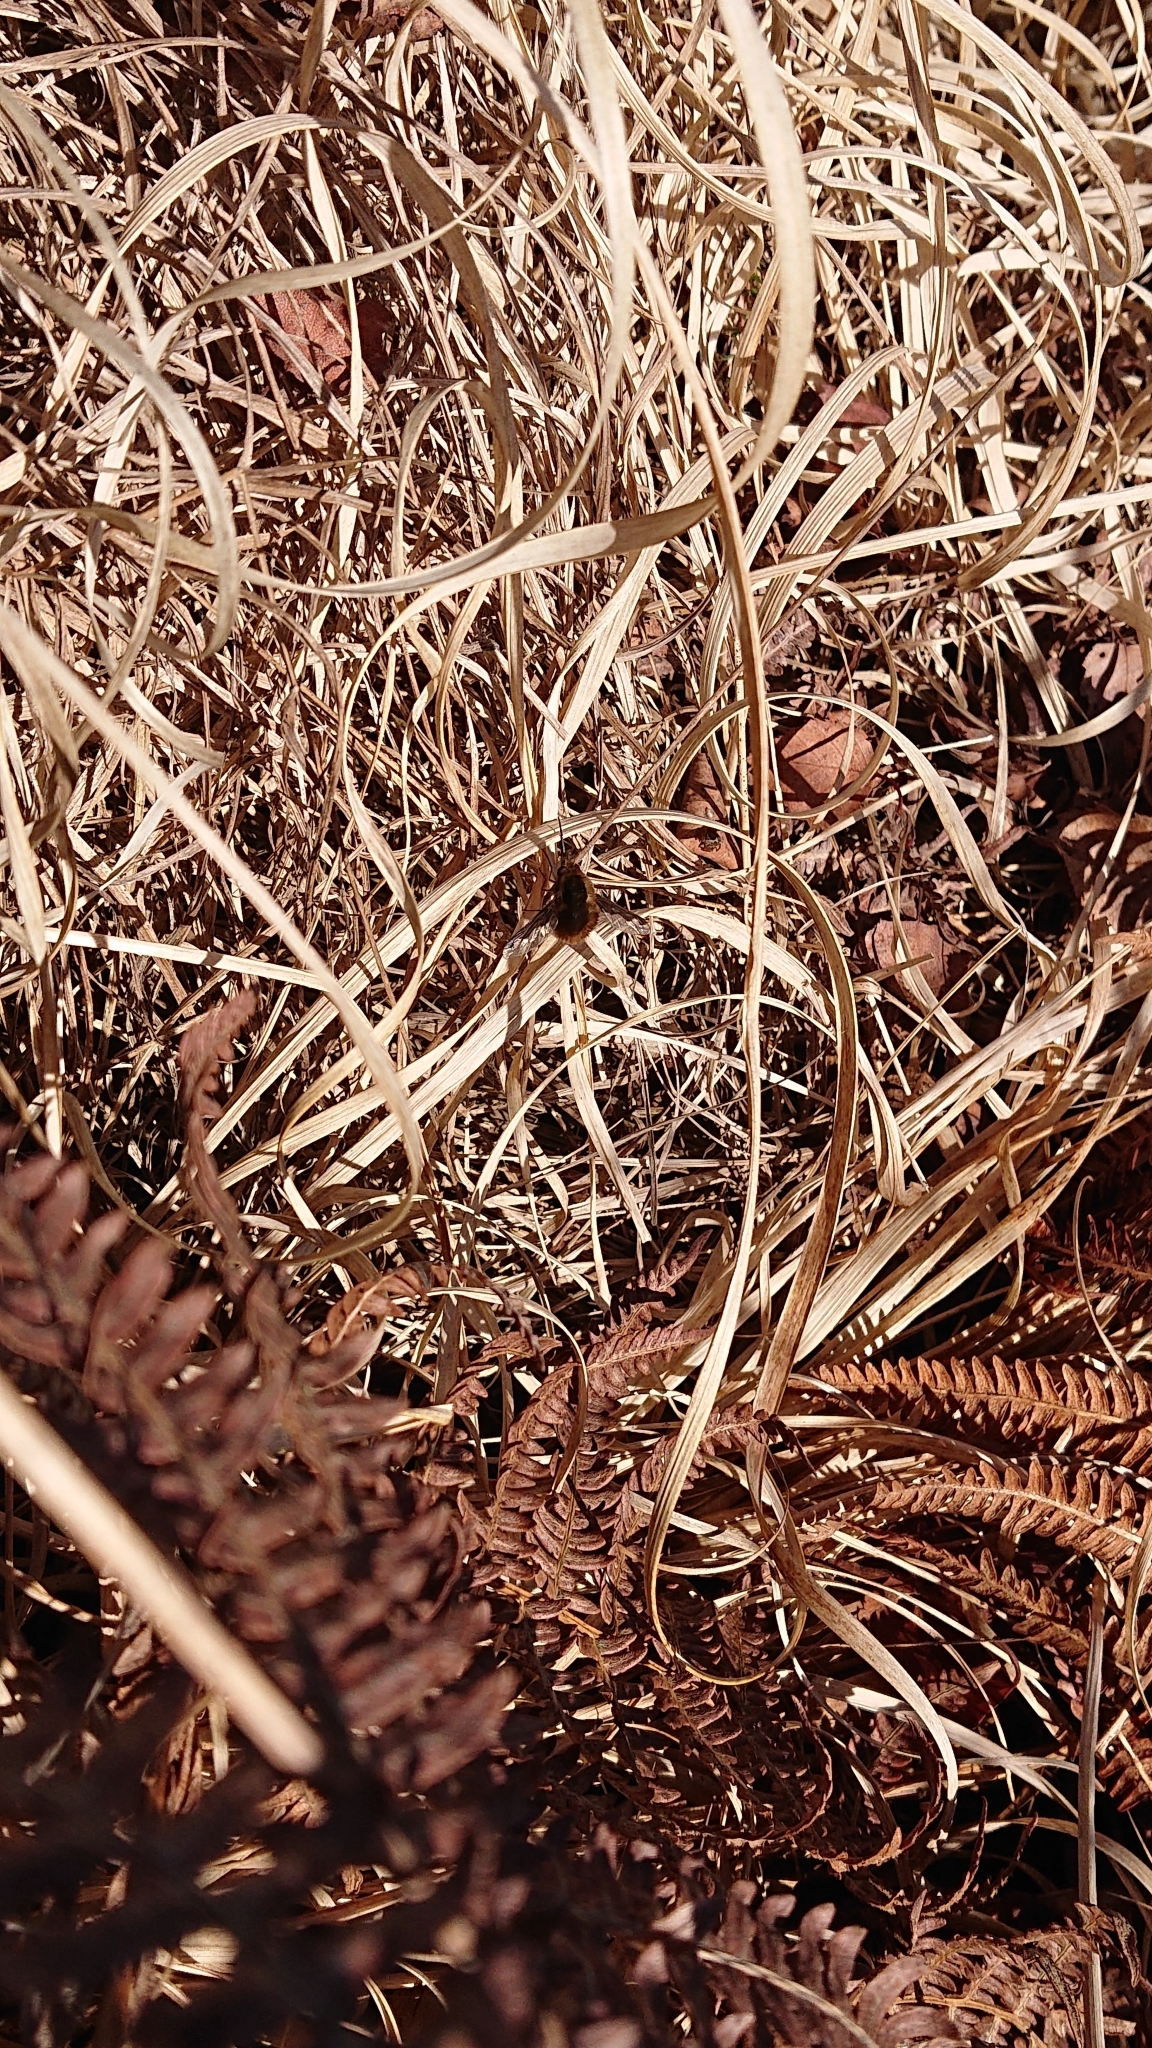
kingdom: Animalia
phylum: Arthropoda
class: Insecta
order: Diptera
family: Bombyliidae
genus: Bombylius
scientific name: Bombylius major
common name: Bee fly
